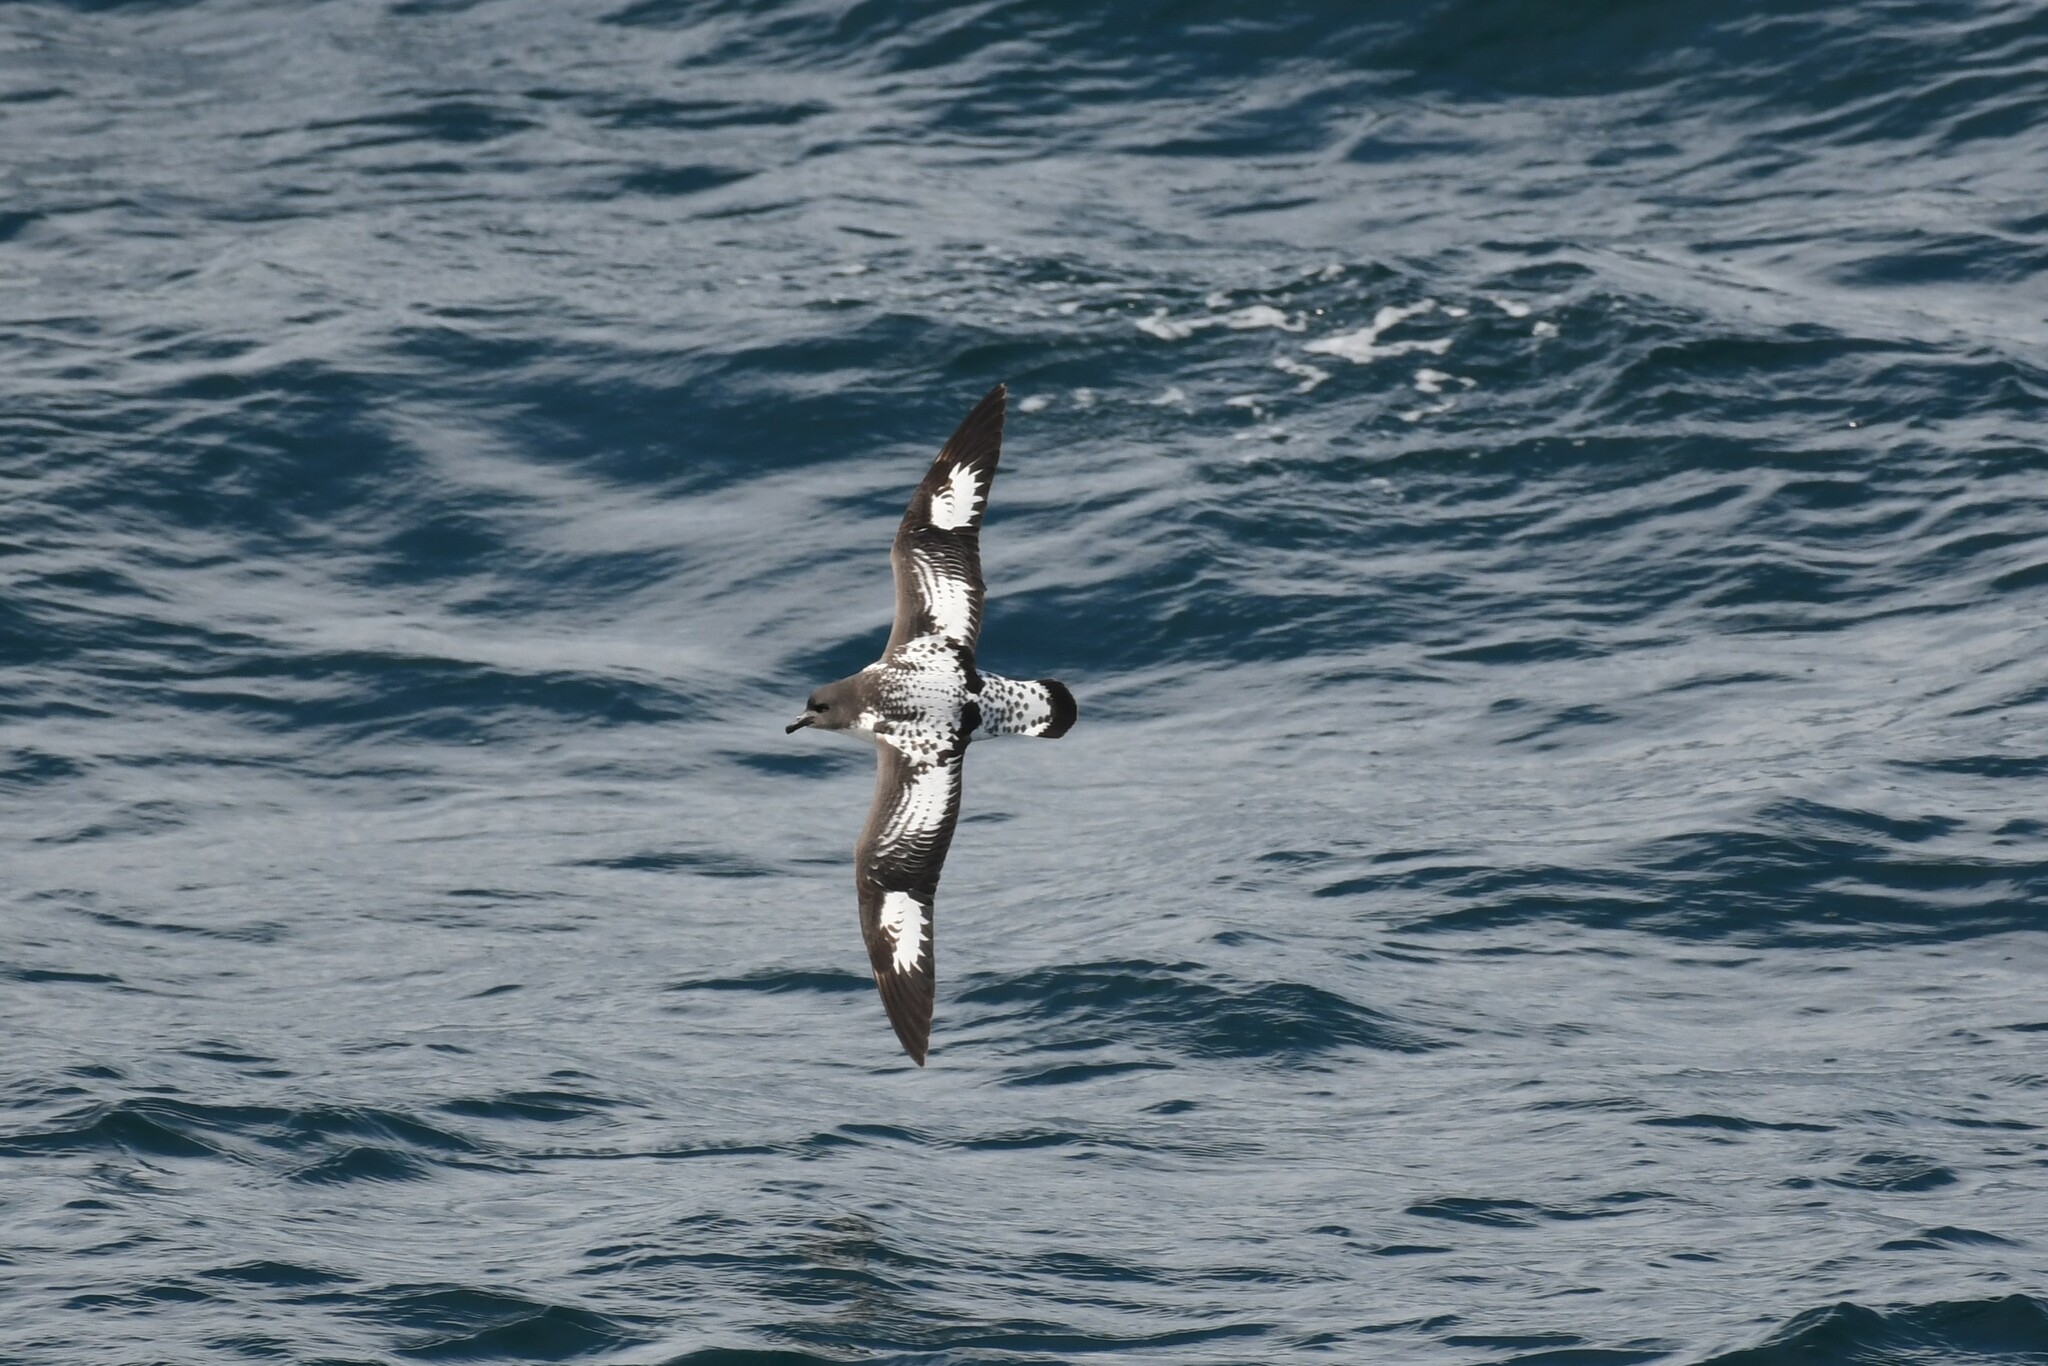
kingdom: Animalia
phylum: Chordata
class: Aves
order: Procellariiformes
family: Procellariidae
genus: Daption
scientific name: Daption capense
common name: Cape petrel
